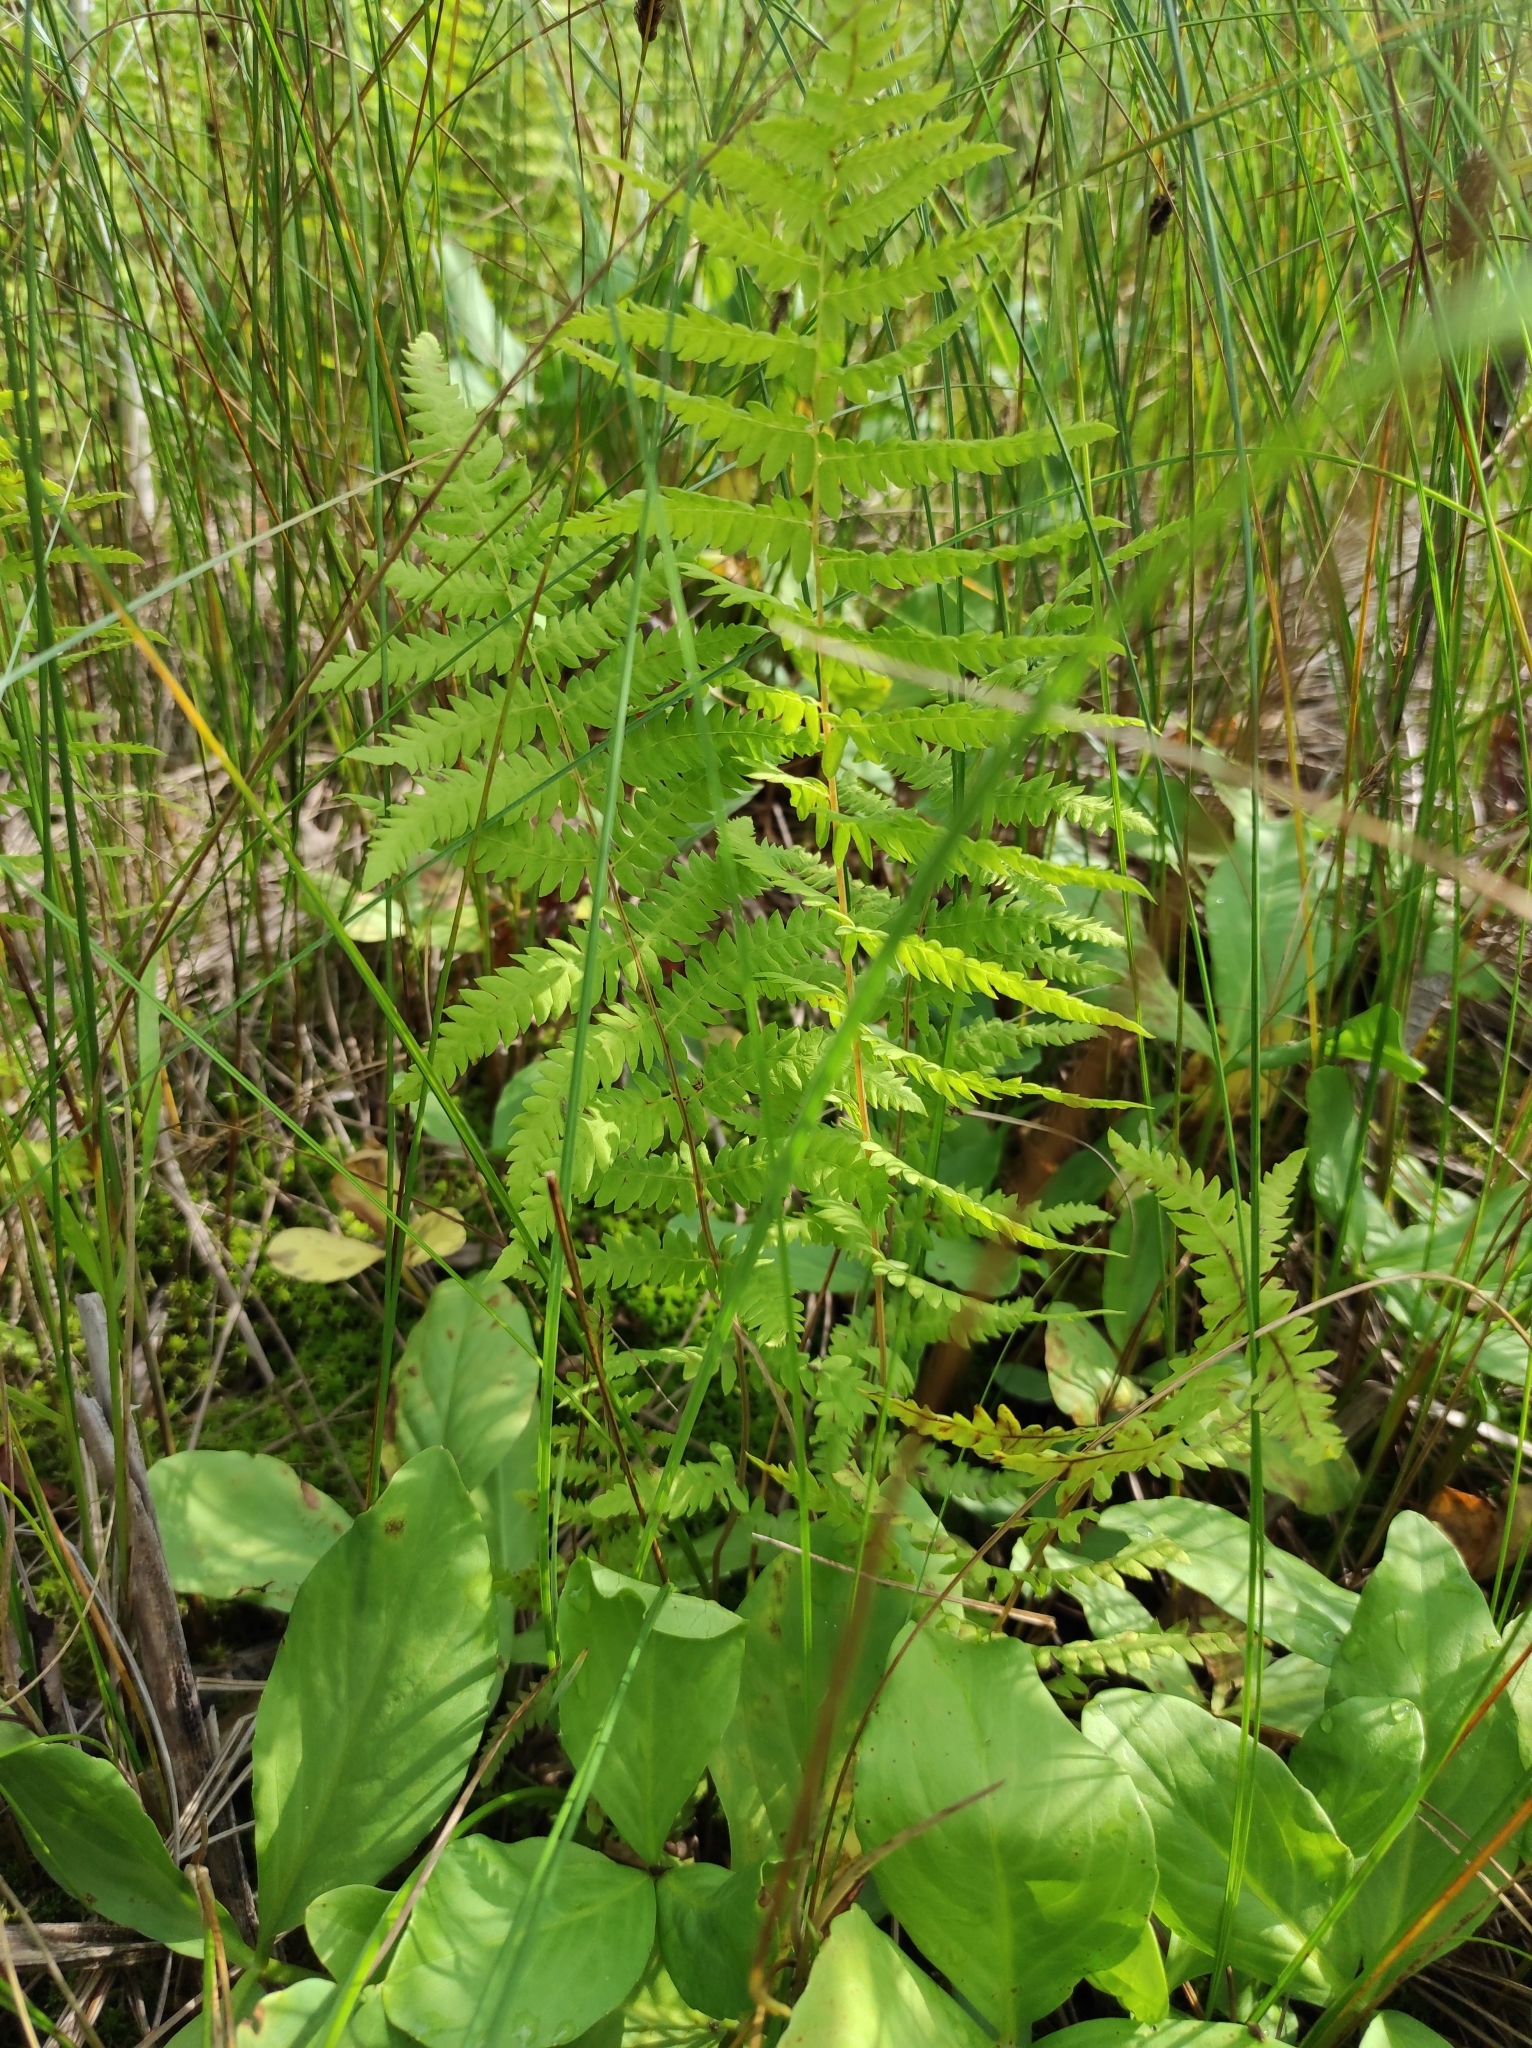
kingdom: Plantae
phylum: Tracheophyta
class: Polypodiopsida
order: Polypodiales
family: Thelypteridaceae
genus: Thelypteris
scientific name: Thelypteris palustris
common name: Marsh fern
